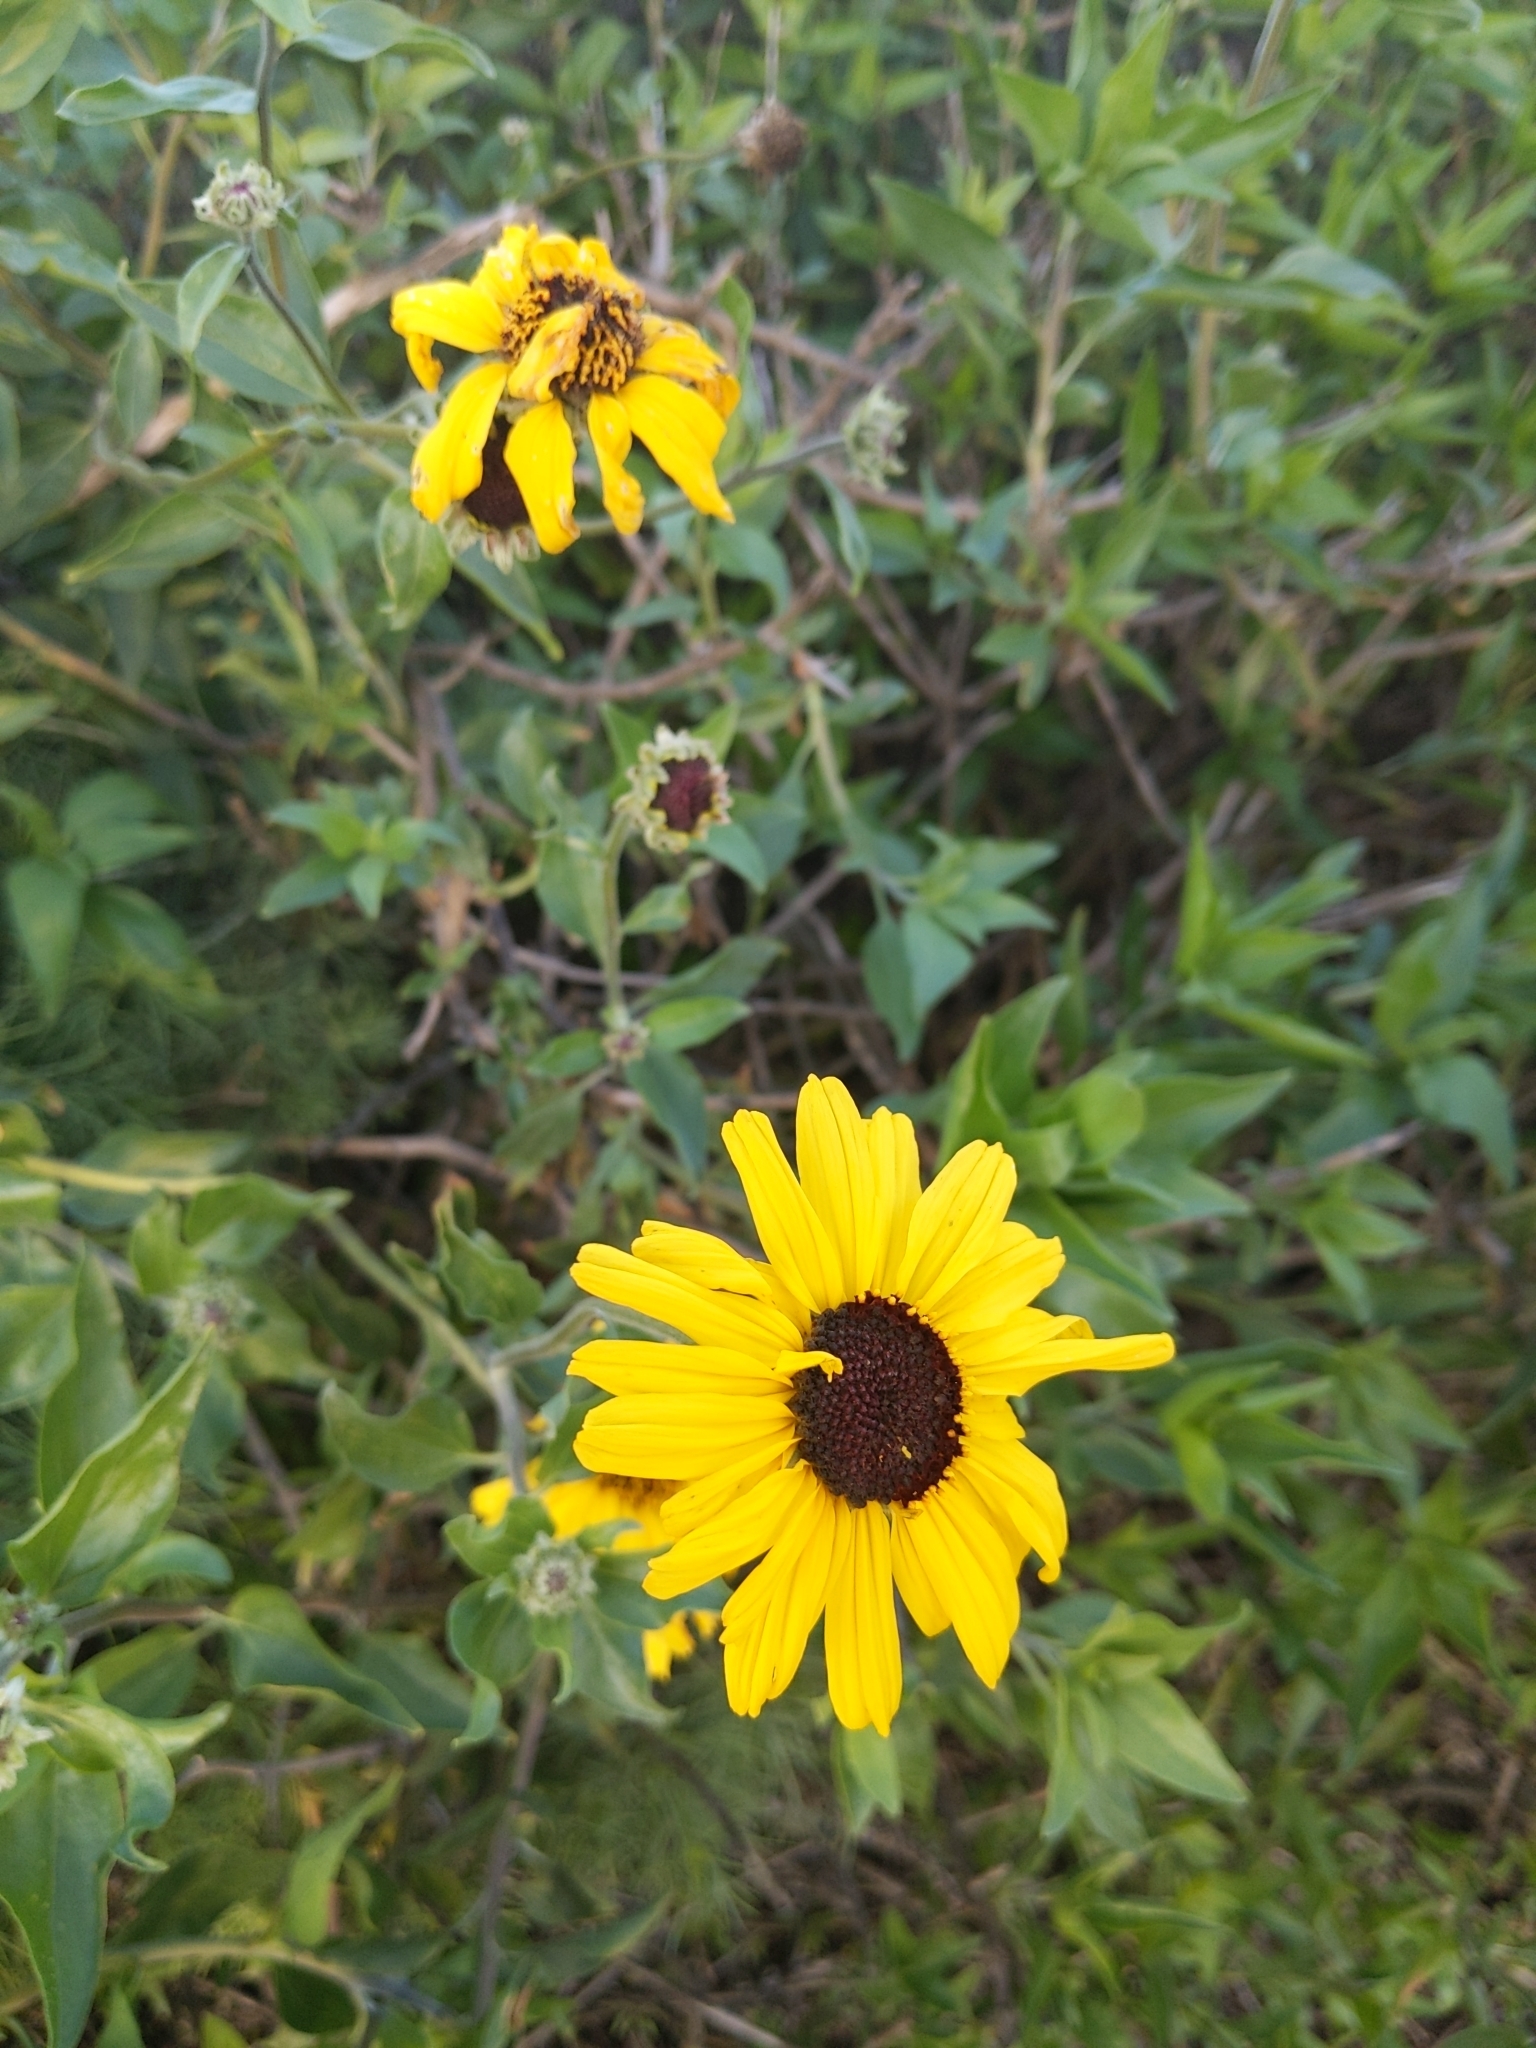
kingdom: Plantae
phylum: Tracheophyta
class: Magnoliopsida
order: Asterales
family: Asteraceae
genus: Encelia
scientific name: Encelia californica
